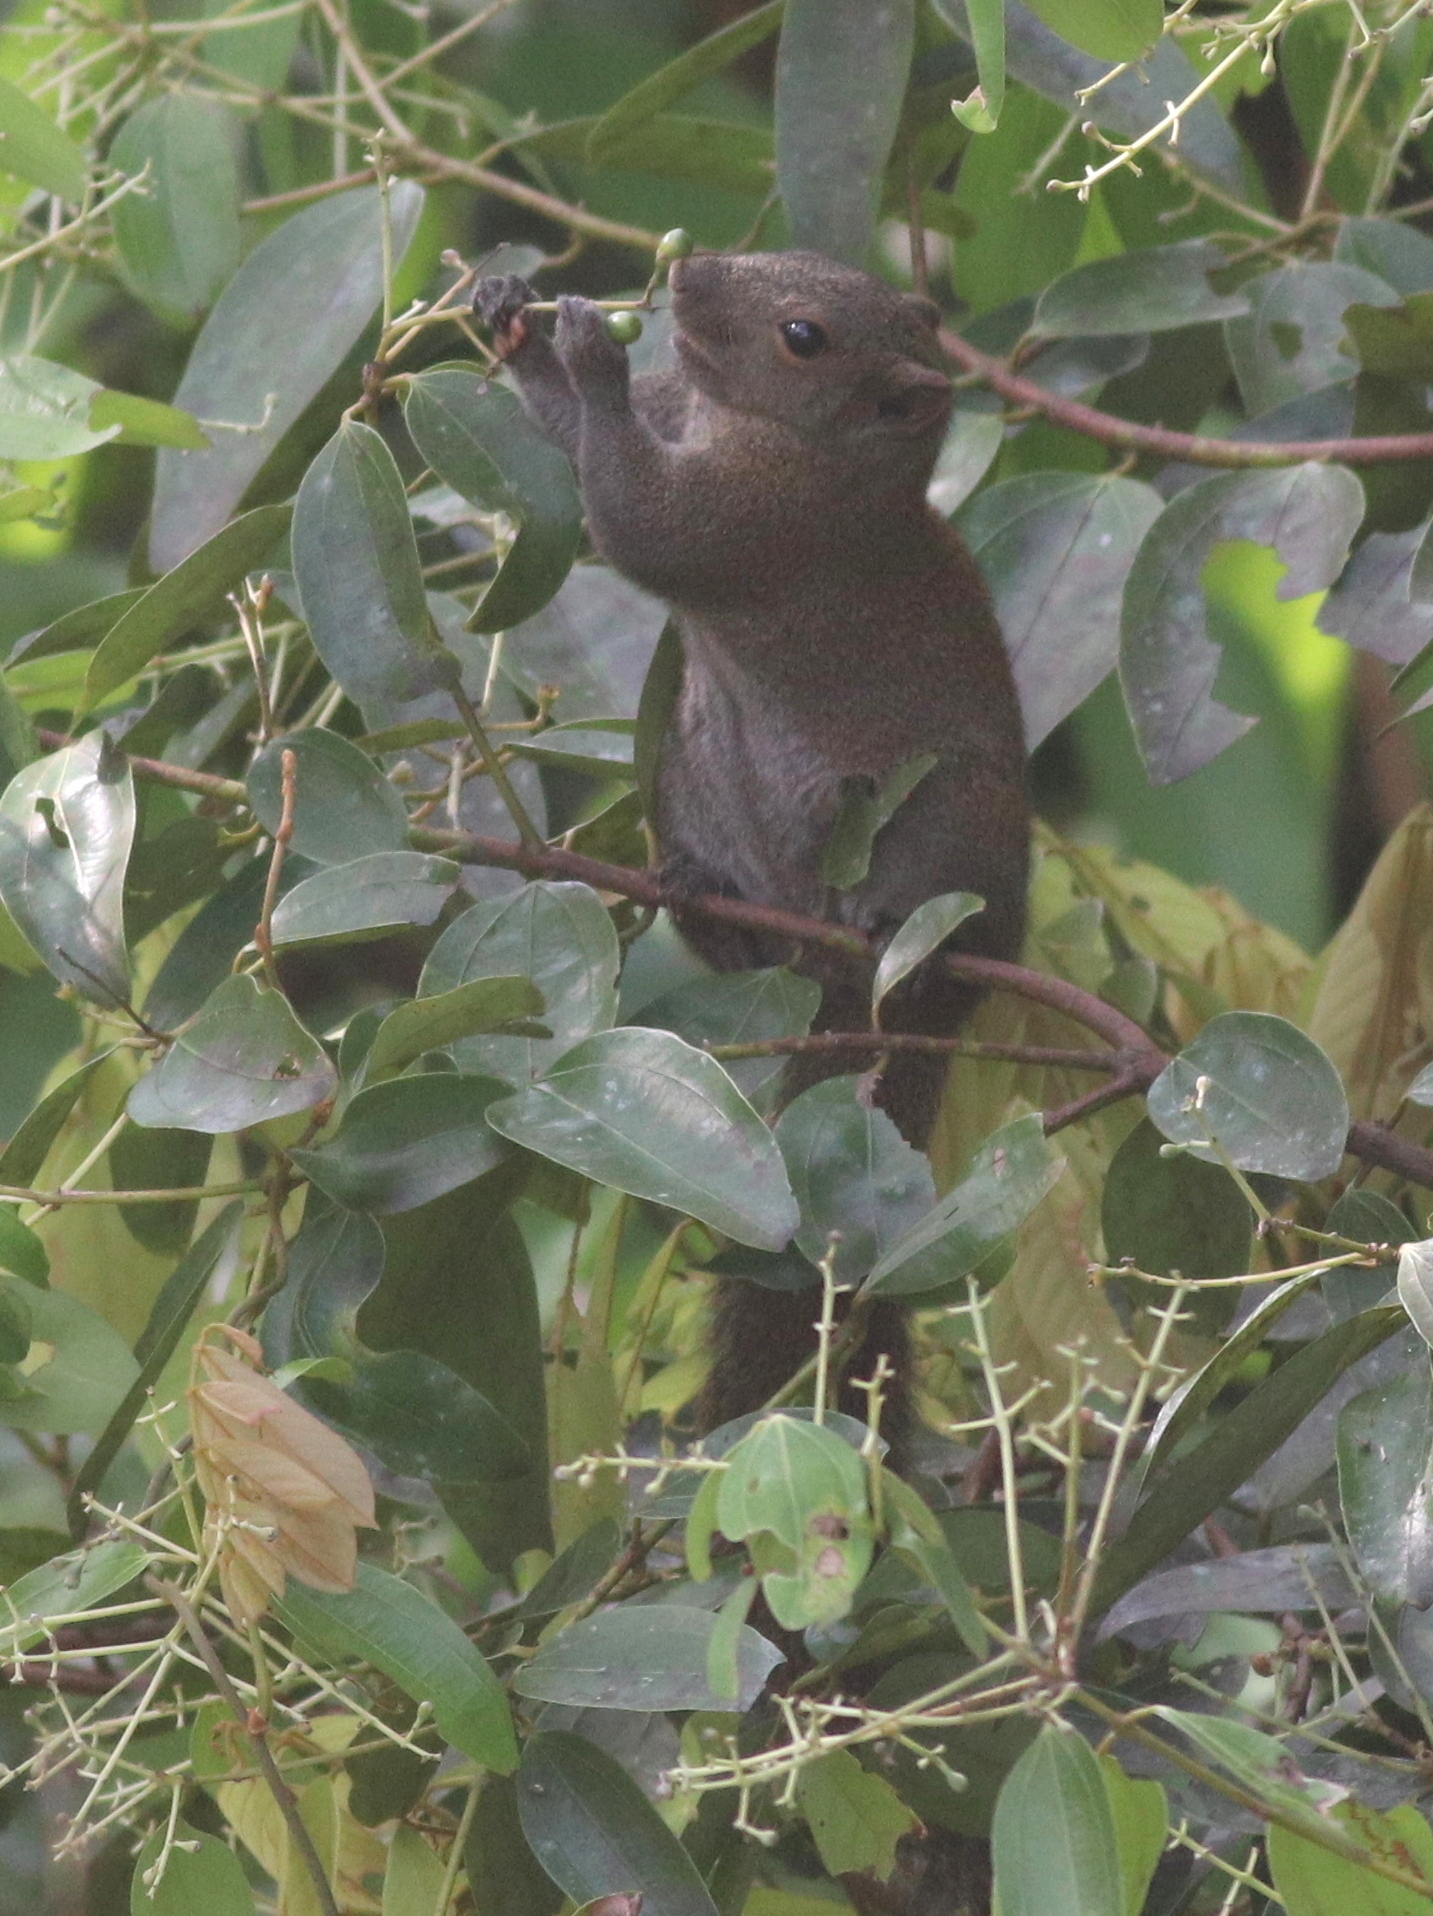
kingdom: Animalia
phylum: Chordata
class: Mammalia
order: Rodentia
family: Sciuridae
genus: Callosciurus
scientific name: Callosciurus caniceps
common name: Gray-bellied squirrel
